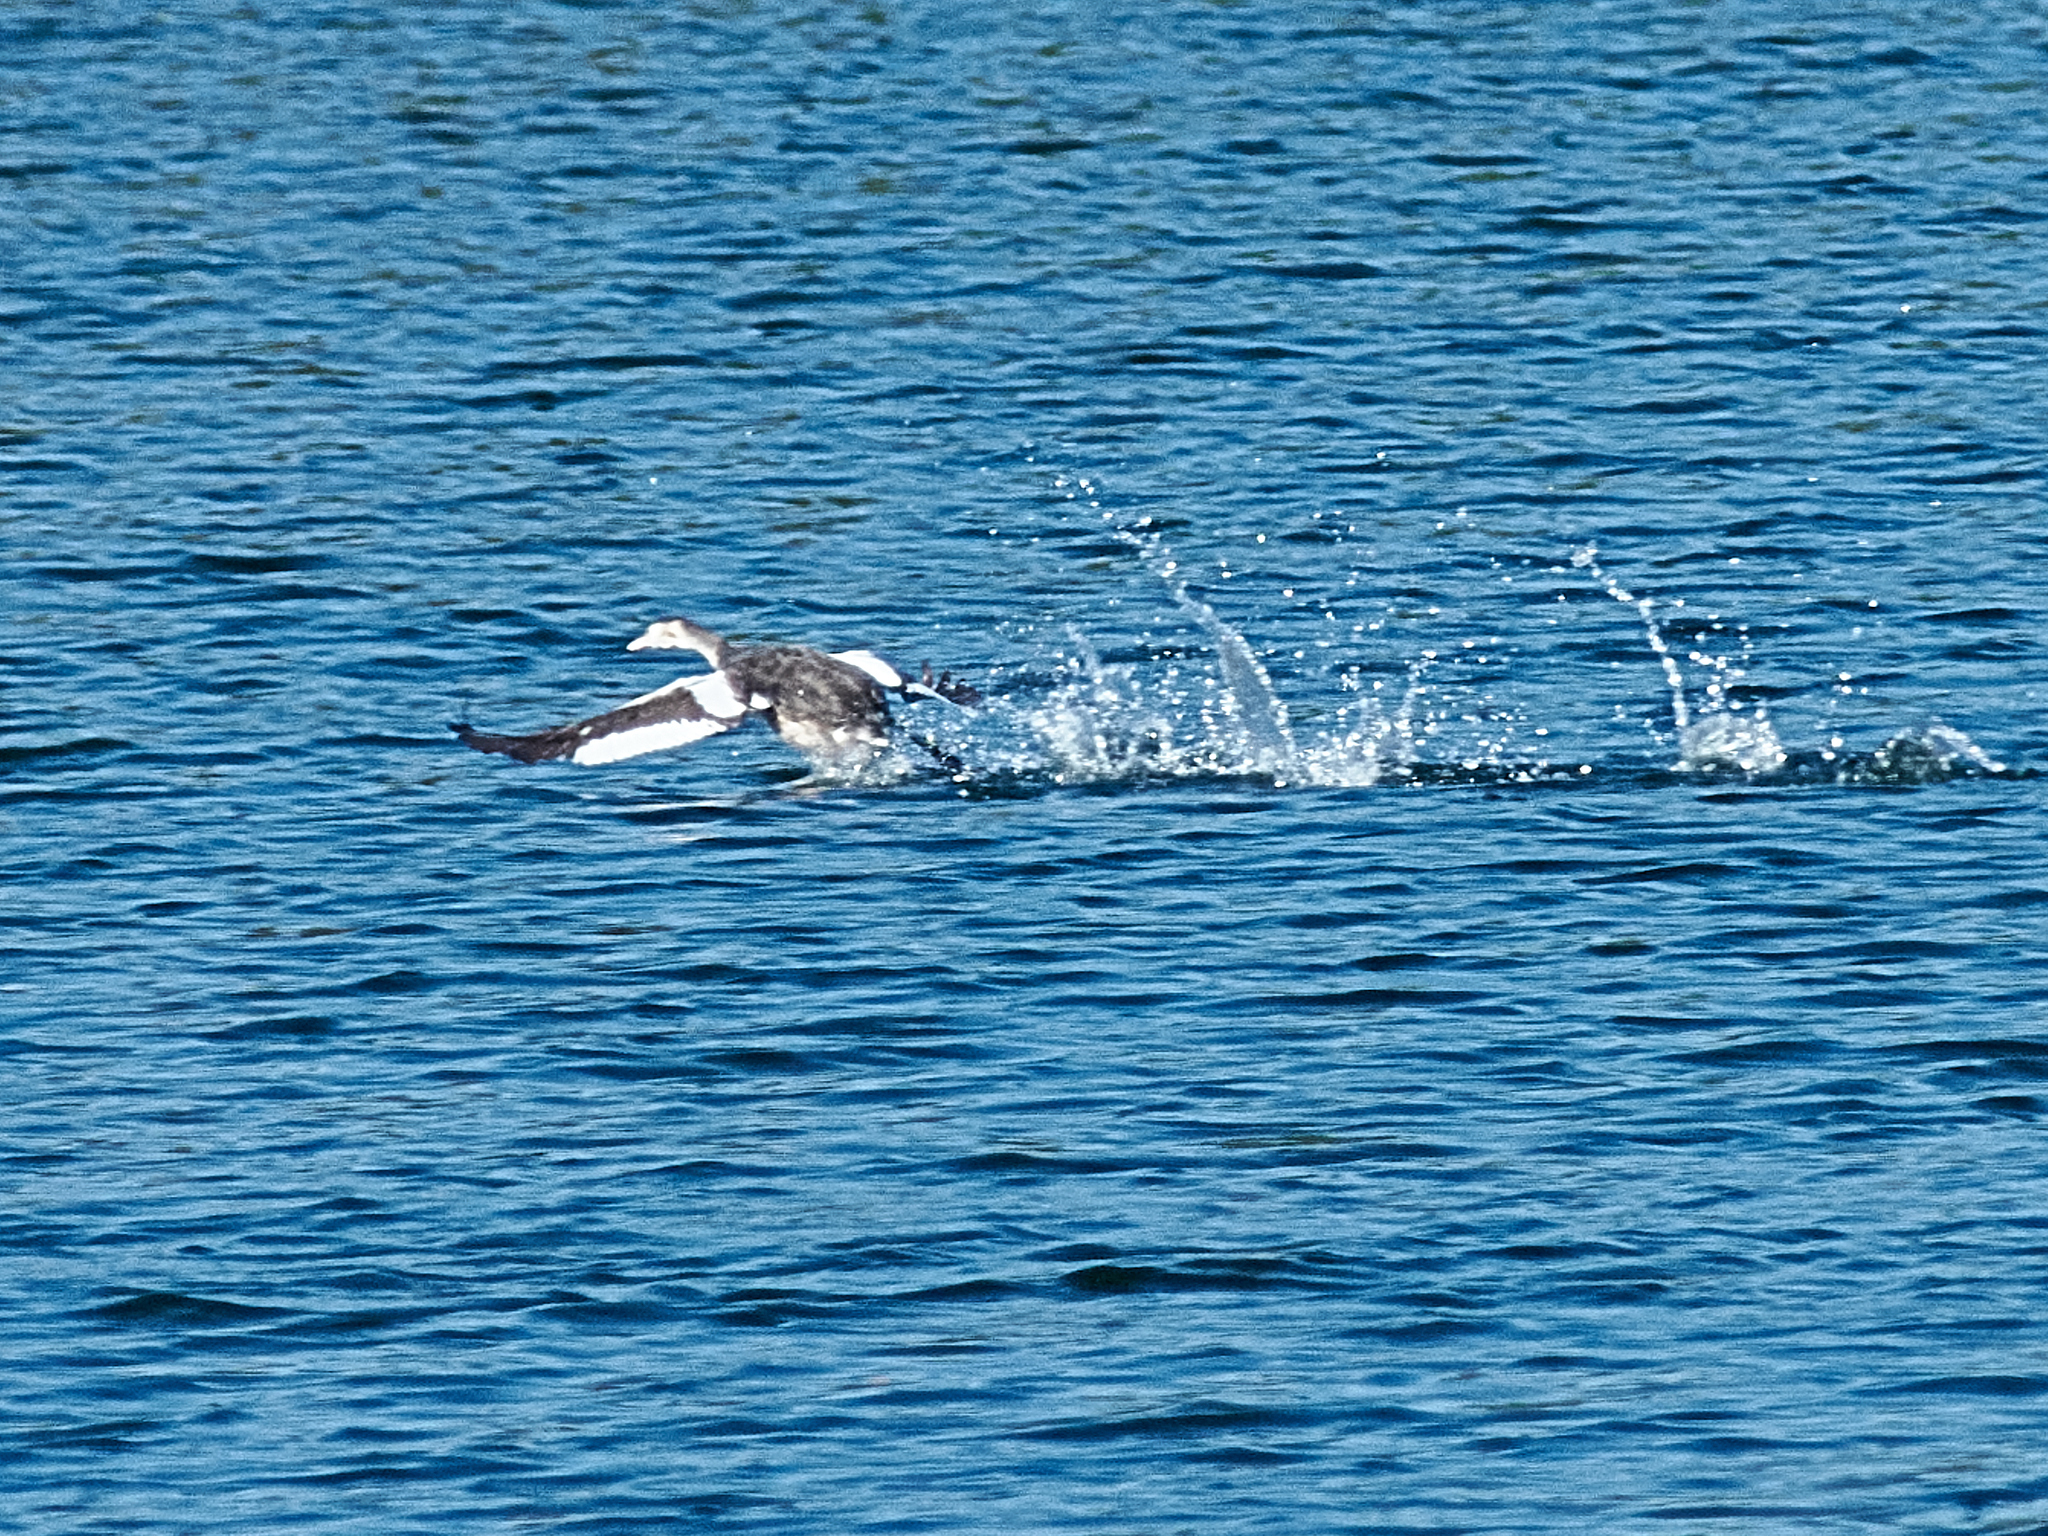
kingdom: Animalia
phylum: Chordata
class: Aves
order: Podicipediformes
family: Podicipedidae
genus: Podiceps
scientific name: Podiceps cristatus
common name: Great crested grebe
